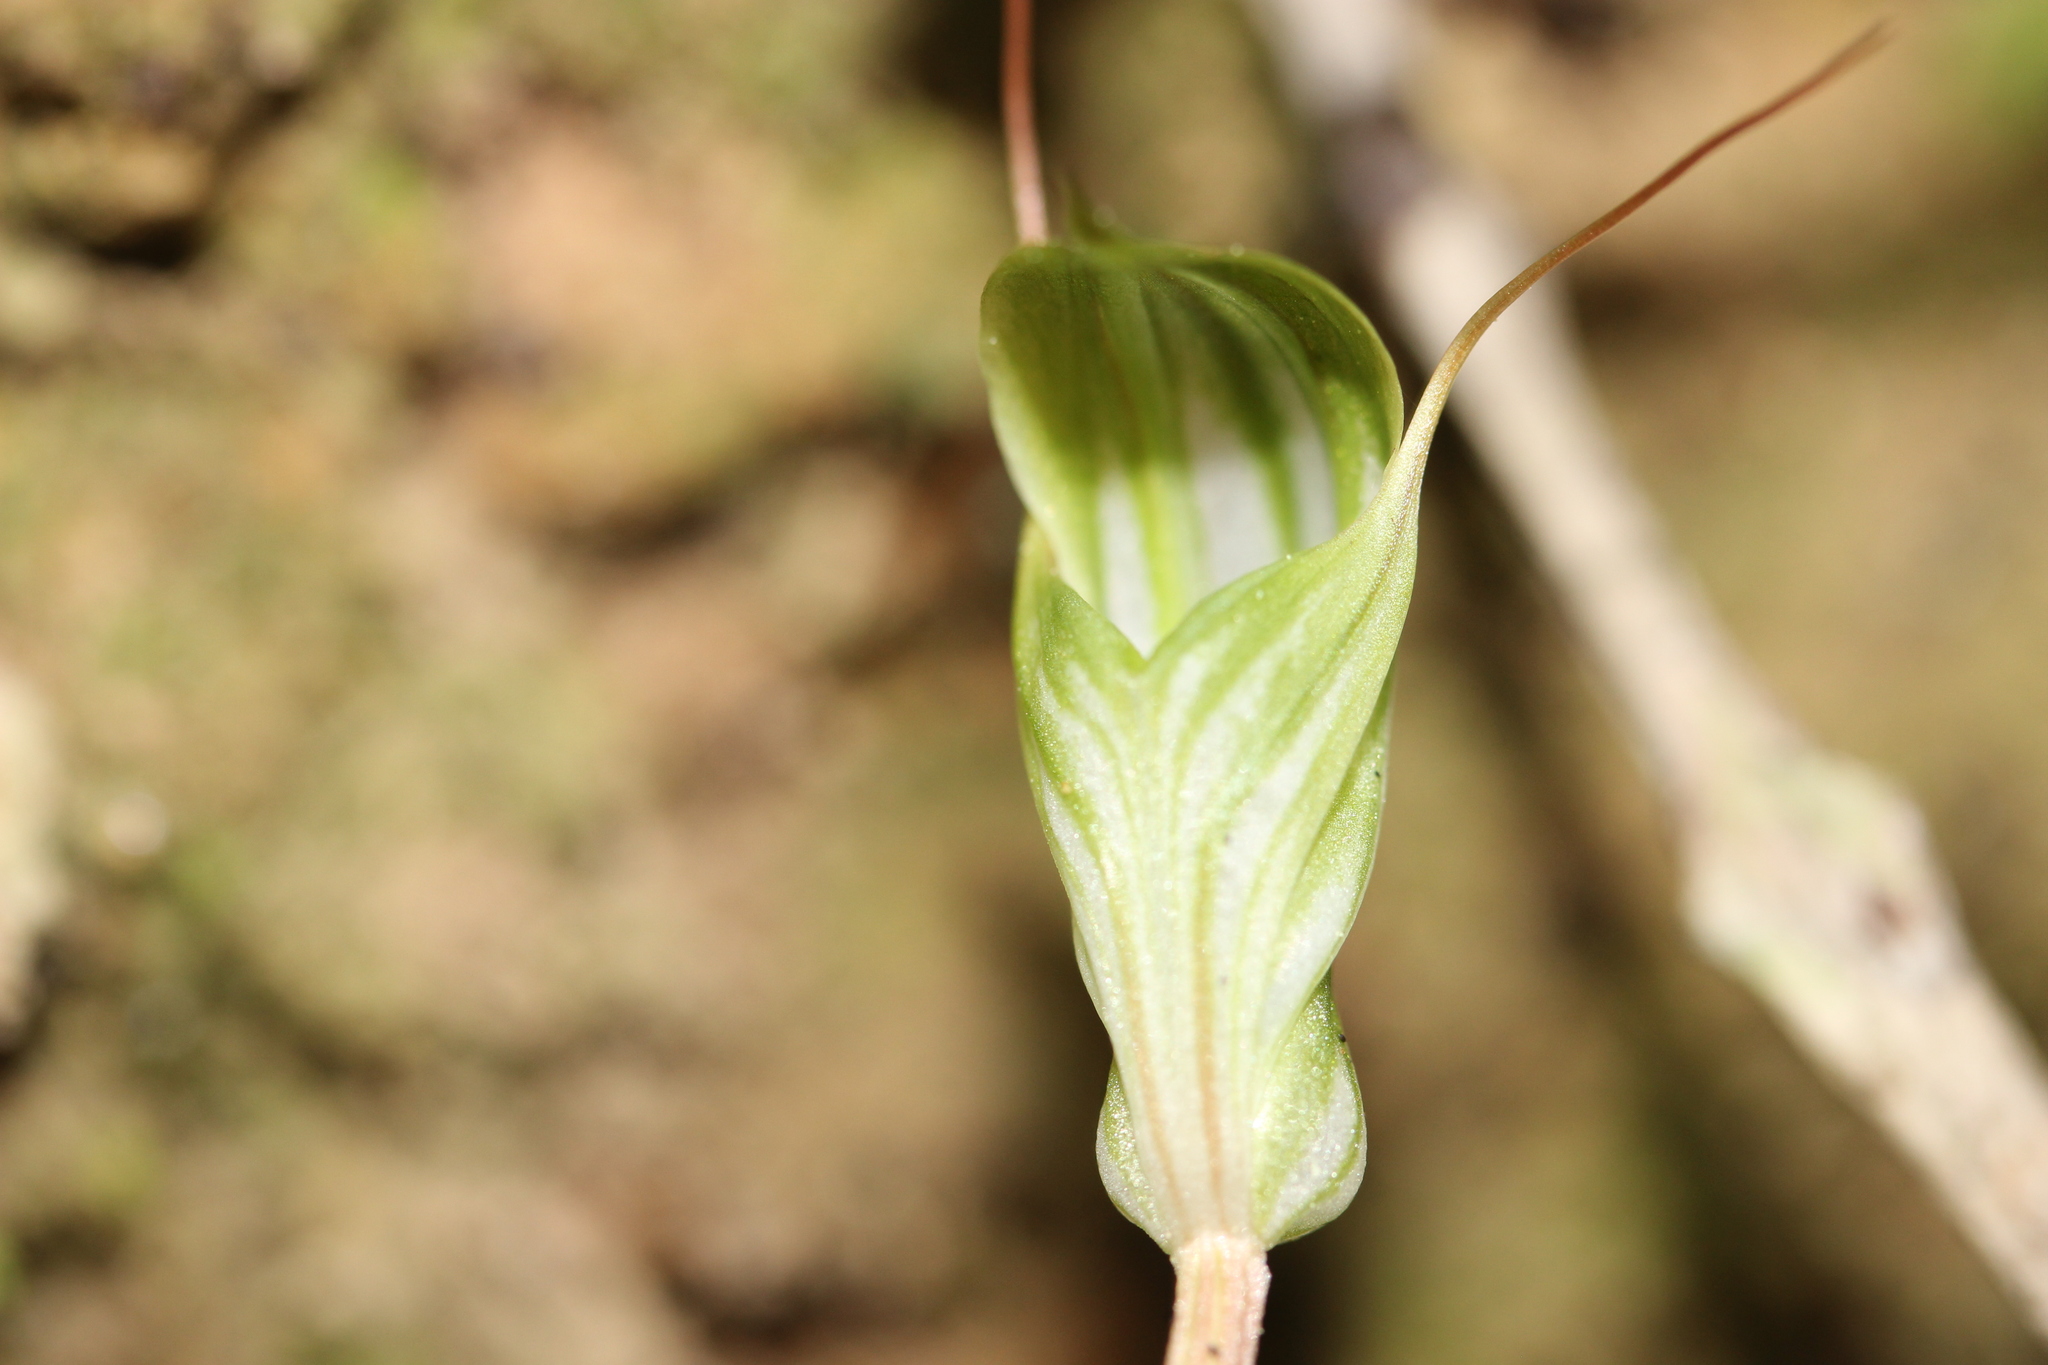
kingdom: Plantae
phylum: Tracheophyta
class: Liliopsida
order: Asparagales
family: Orchidaceae
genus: Pterostylis
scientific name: Pterostylis alobula
